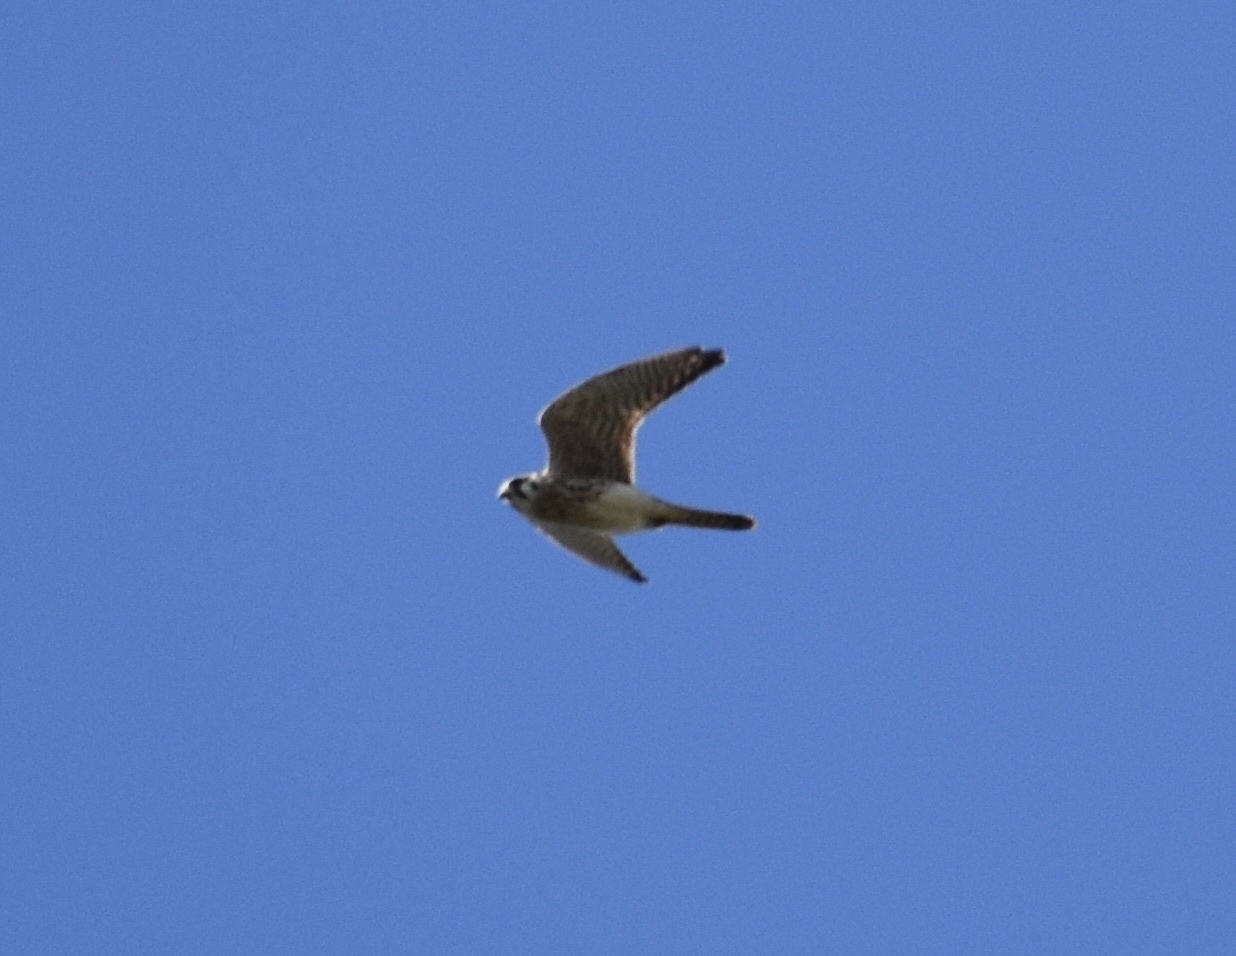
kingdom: Animalia
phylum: Chordata
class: Aves
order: Falconiformes
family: Falconidae
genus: Falco
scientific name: Falco sparverius
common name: American kestrel
